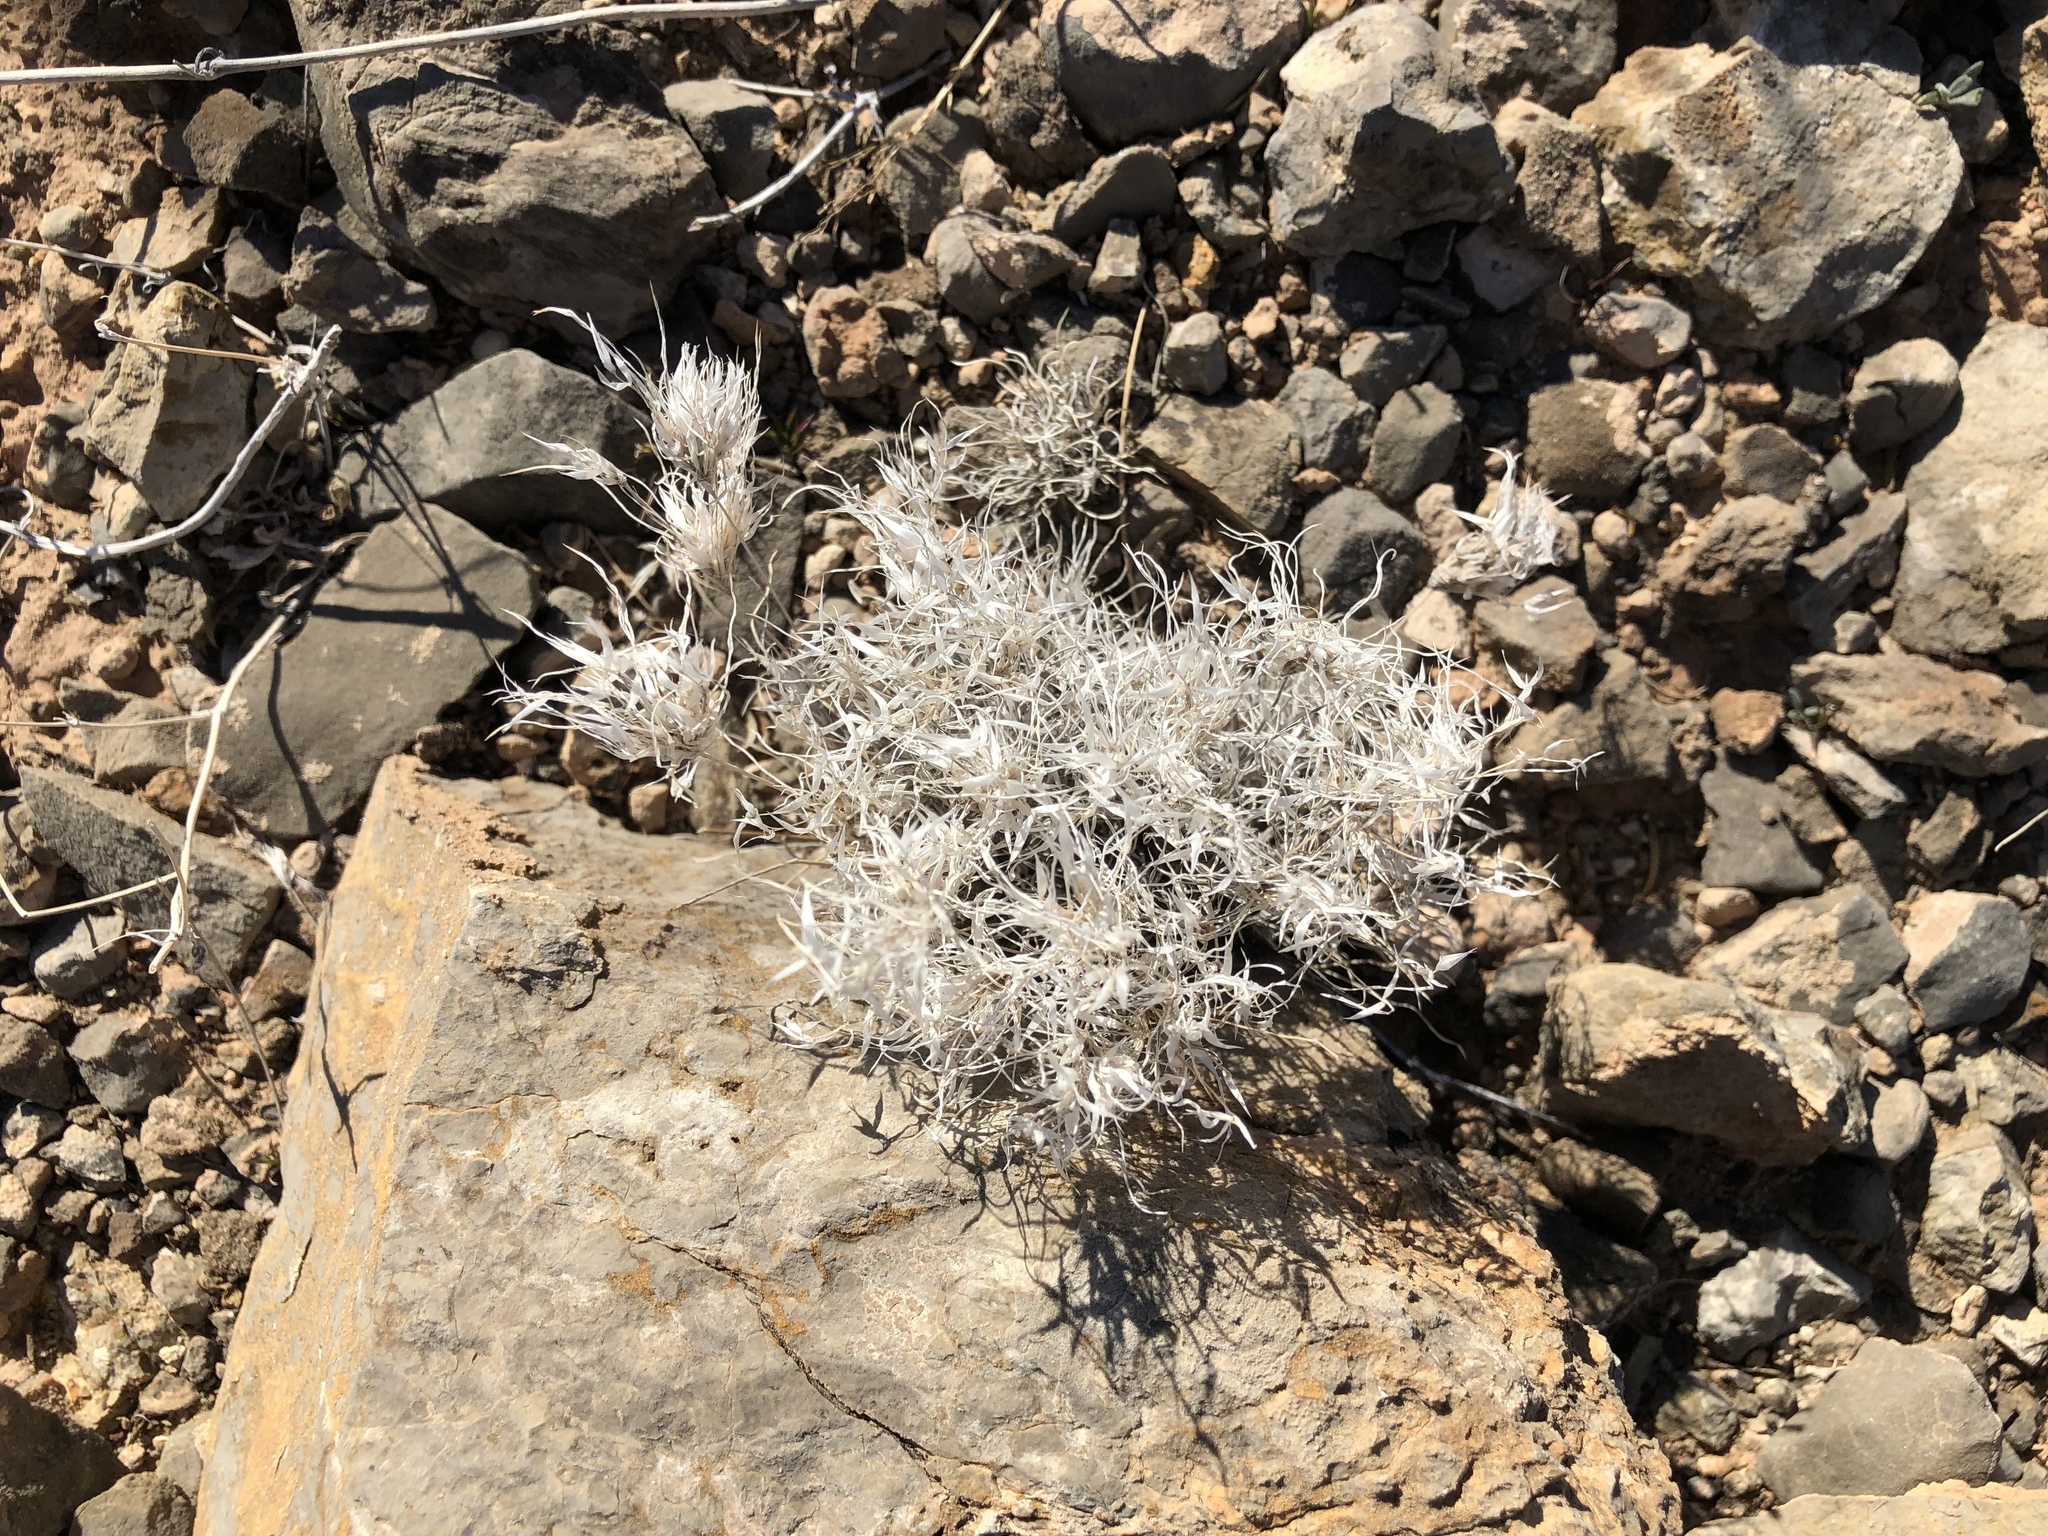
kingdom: Plantae
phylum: Tracheophyta
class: Liliopsida
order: Poales
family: Poaceae
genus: Dasyochloa
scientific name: Dasyochloa pulchella
